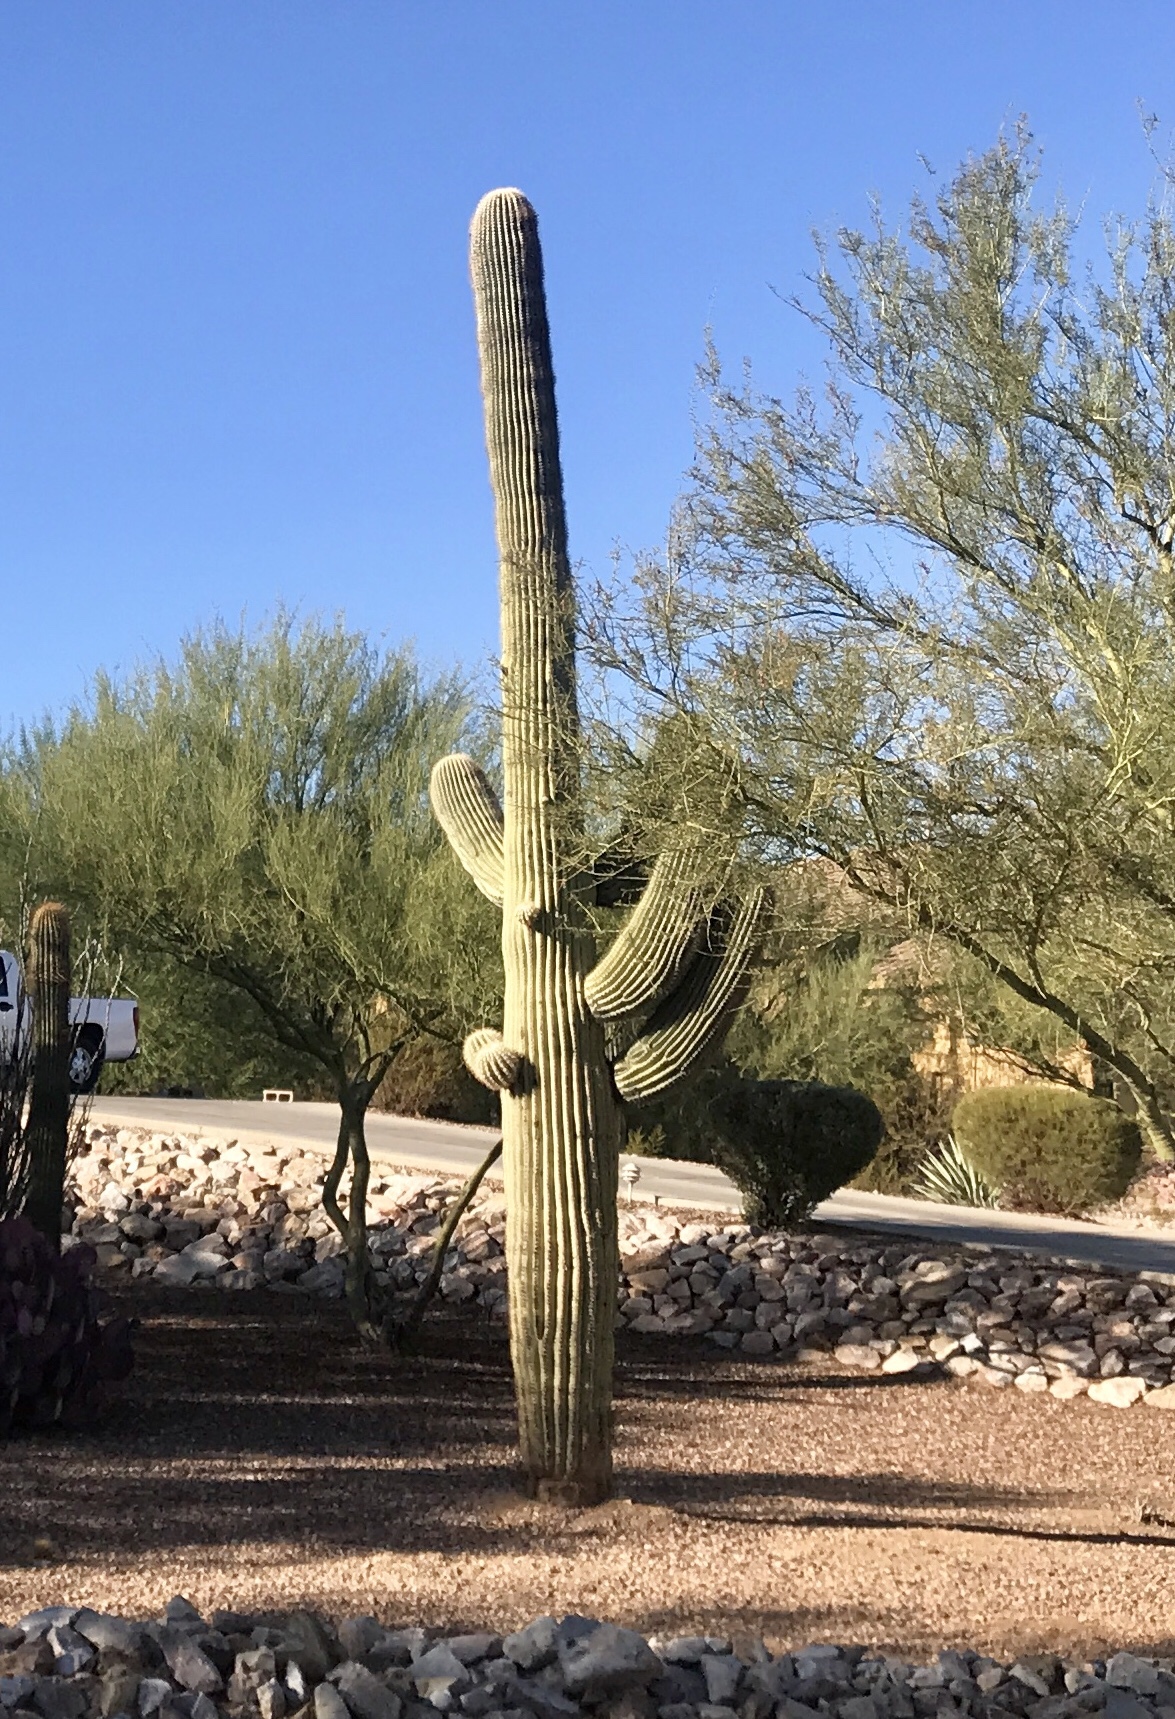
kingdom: Plantae
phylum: Tracheophyta
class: Magnoliopsida
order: Caryophyllales
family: Cactaceae
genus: Carnegiea
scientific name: Carnegiea gigantea
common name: Saguaro
